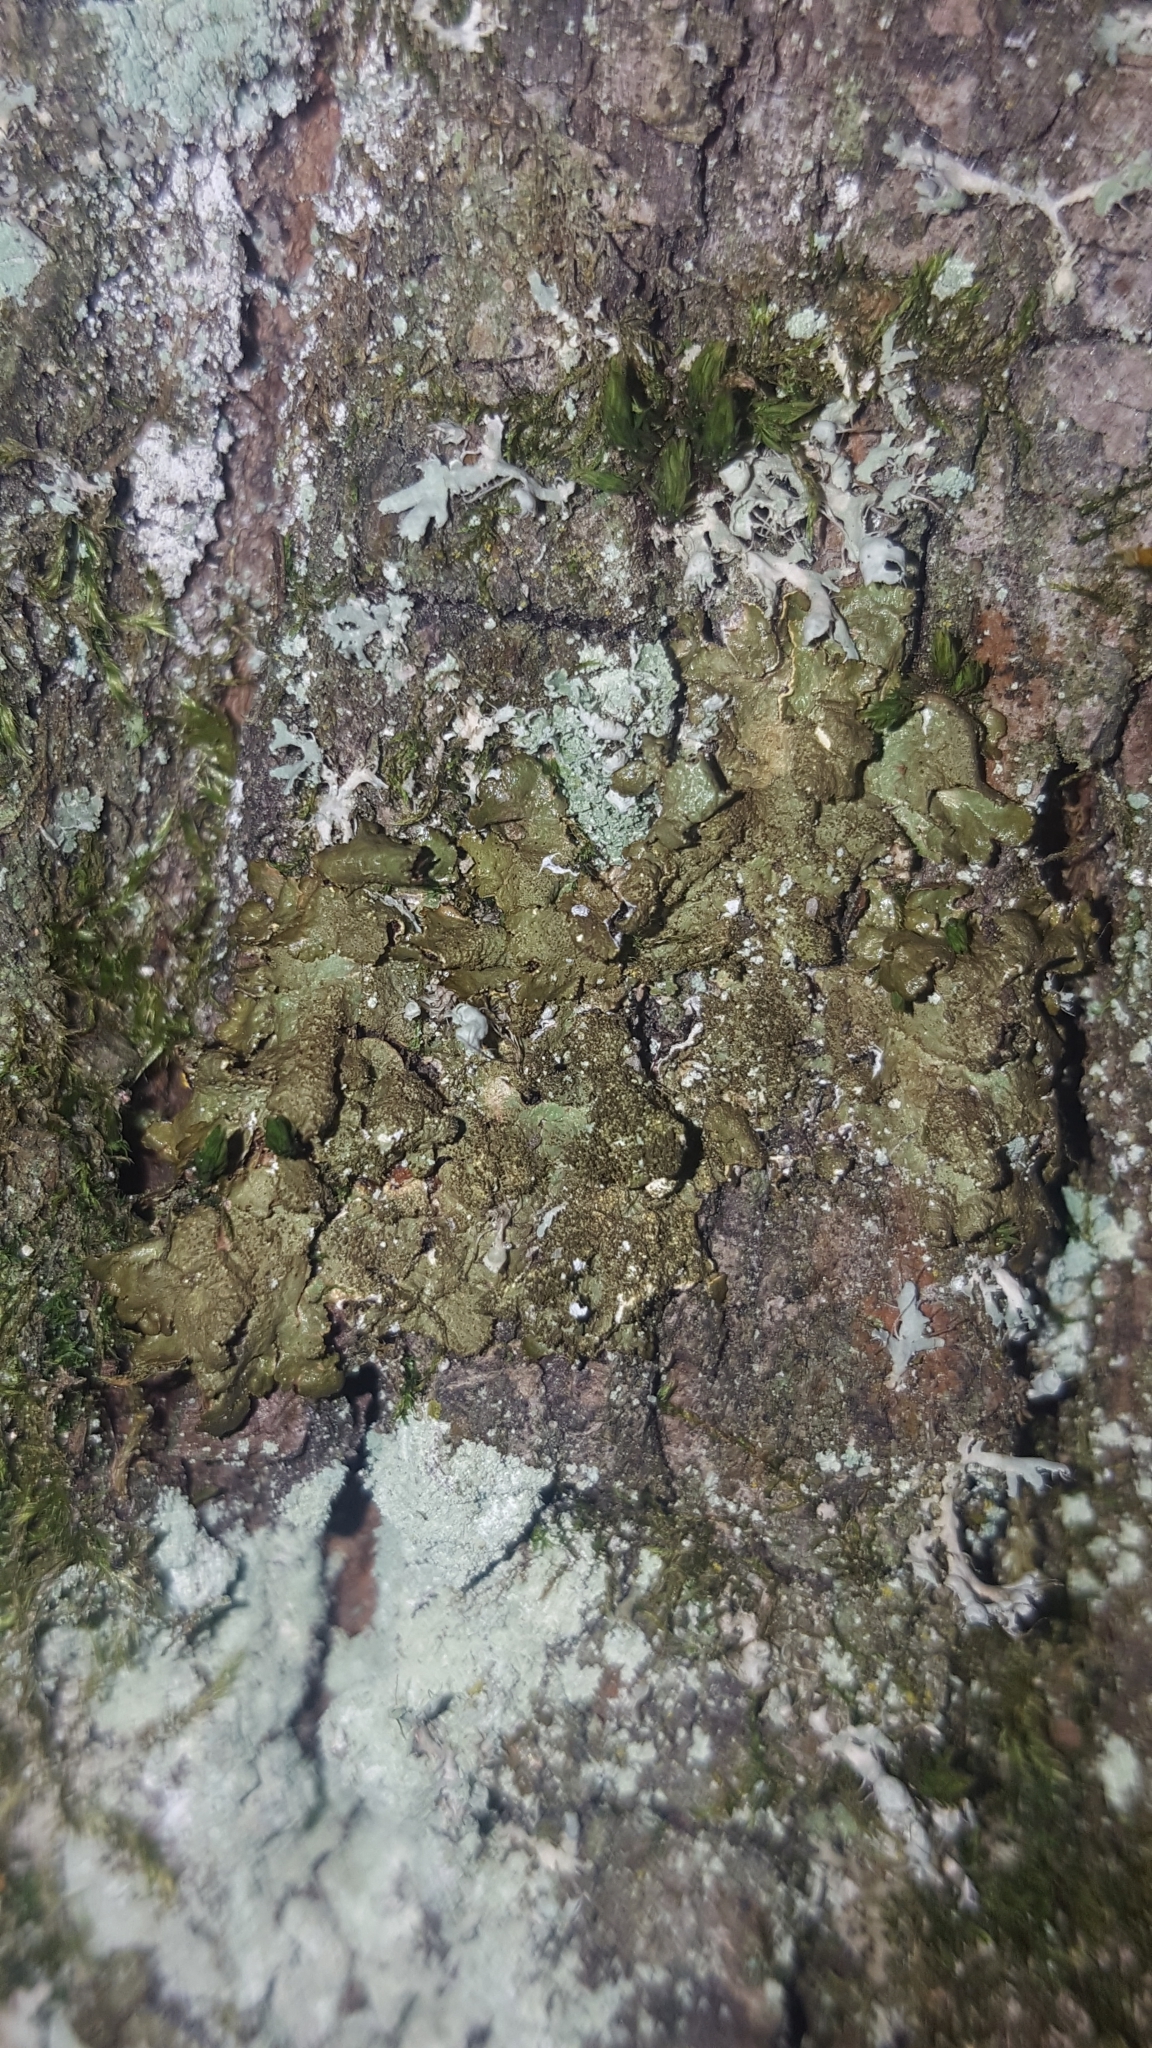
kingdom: Fungi
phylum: Ascomycota
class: Lecanoromycetes
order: Lecanorales
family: Parmeliaceae
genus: Melanelixia
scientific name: Melanelixia subaurifera
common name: Abraded camouflage lichen
